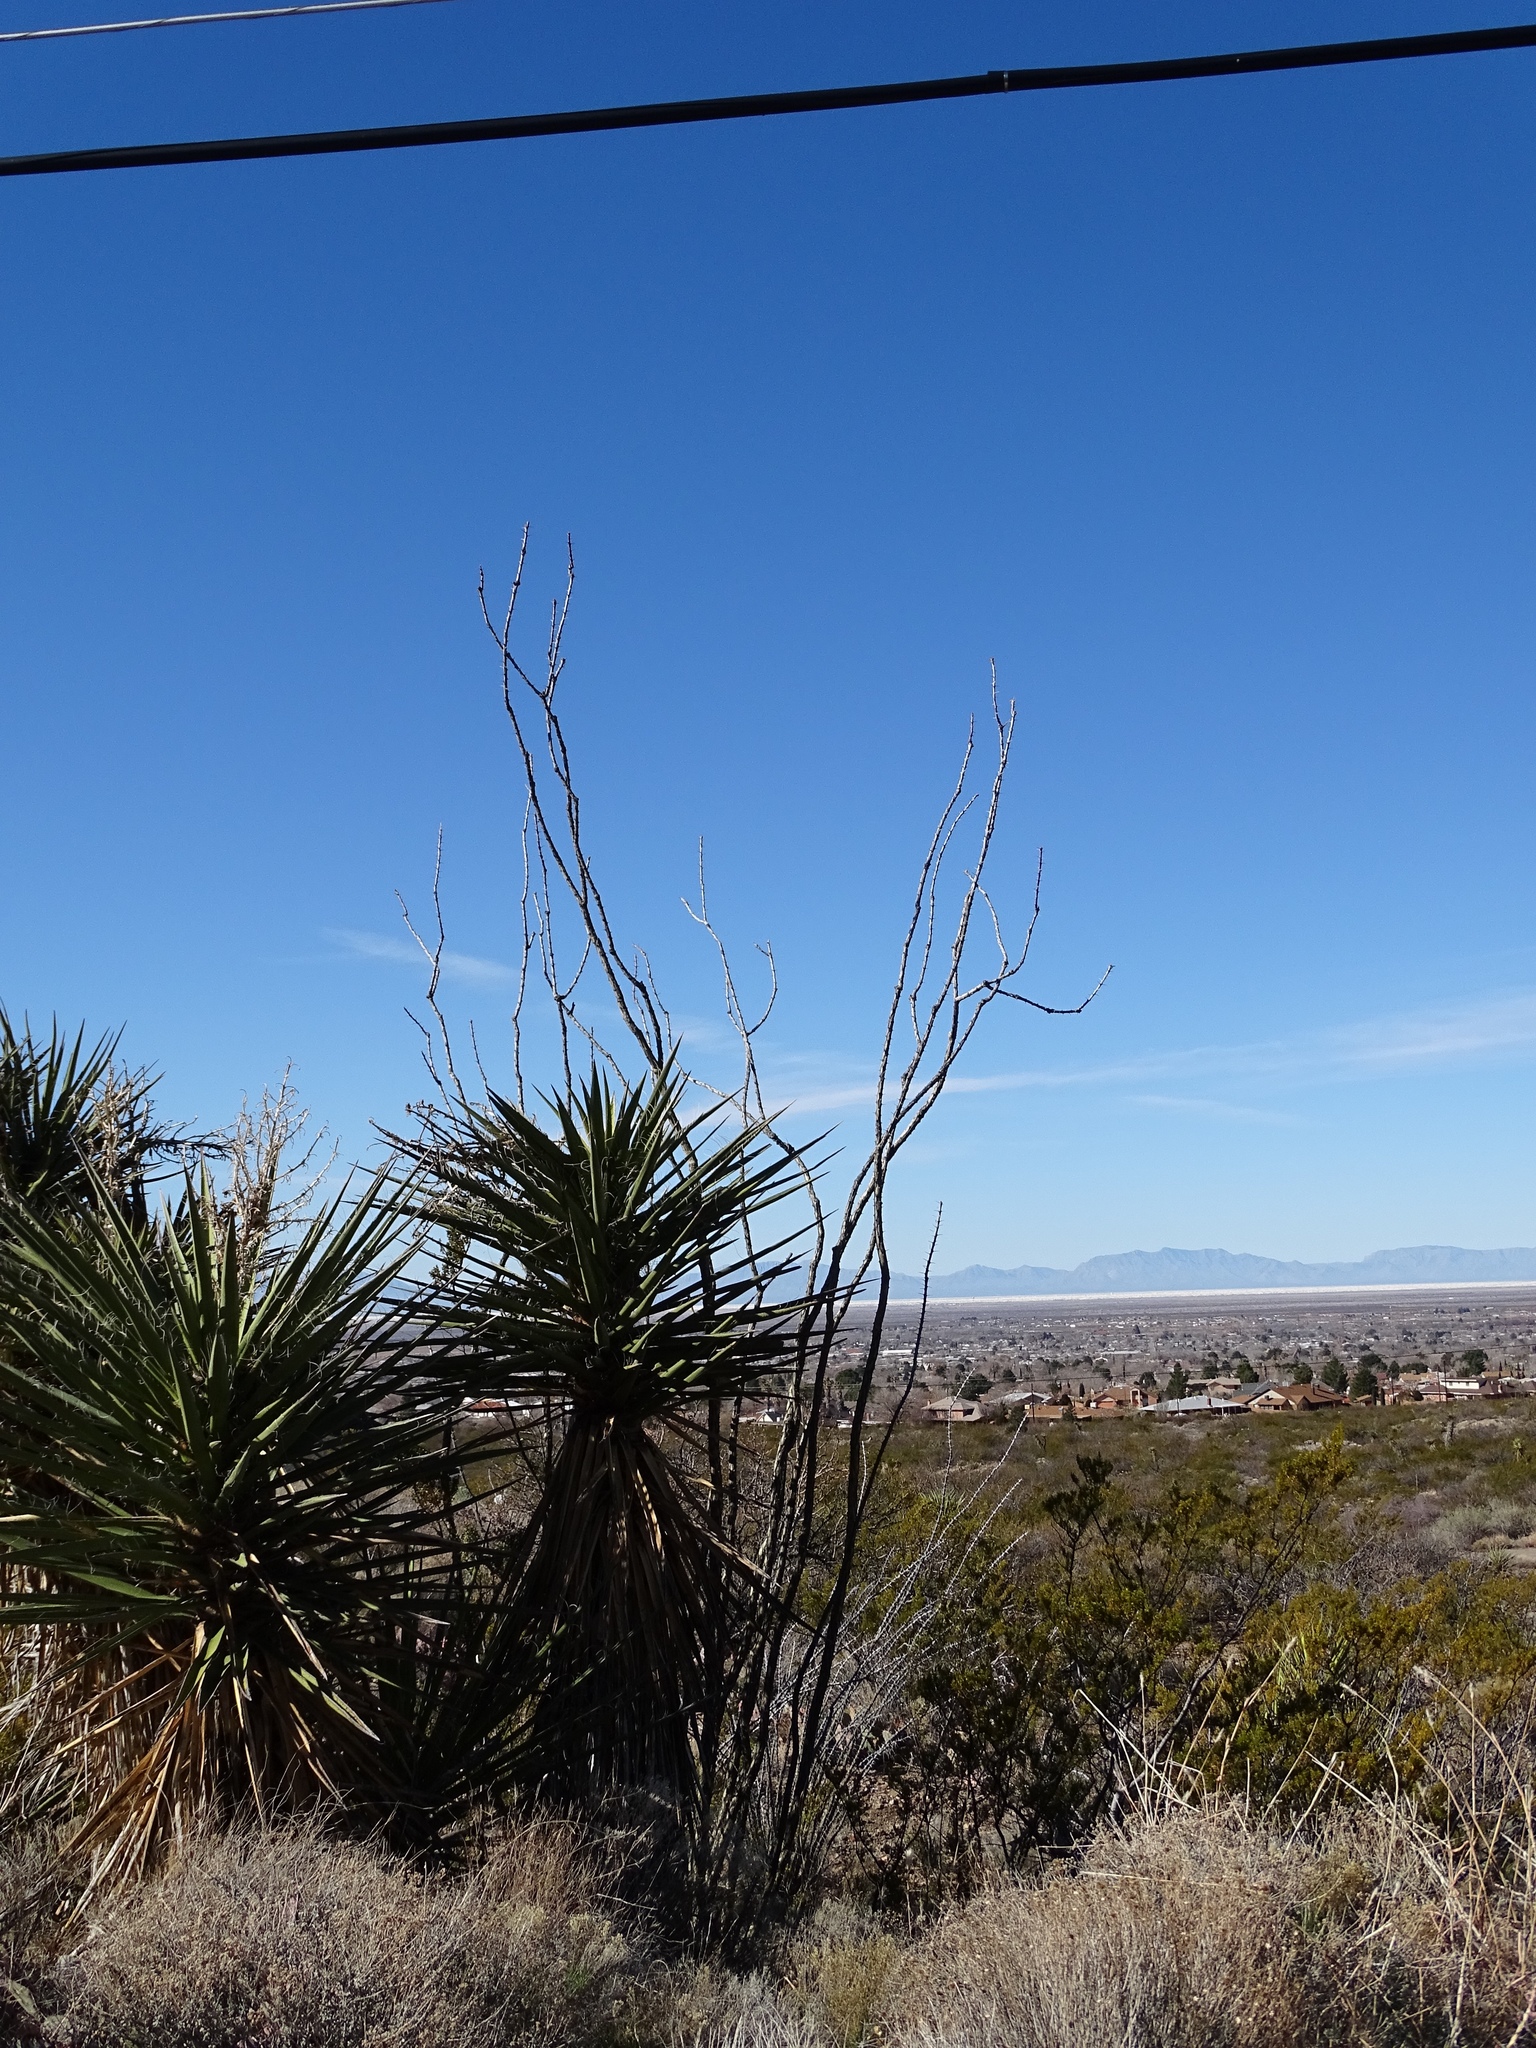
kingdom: Plantae
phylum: Tracheophyta
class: Magnoliopsida
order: Ericales
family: Fouquieriaceae
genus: Fouquieria
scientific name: Fouquieria splendens
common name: Vine-cactus
